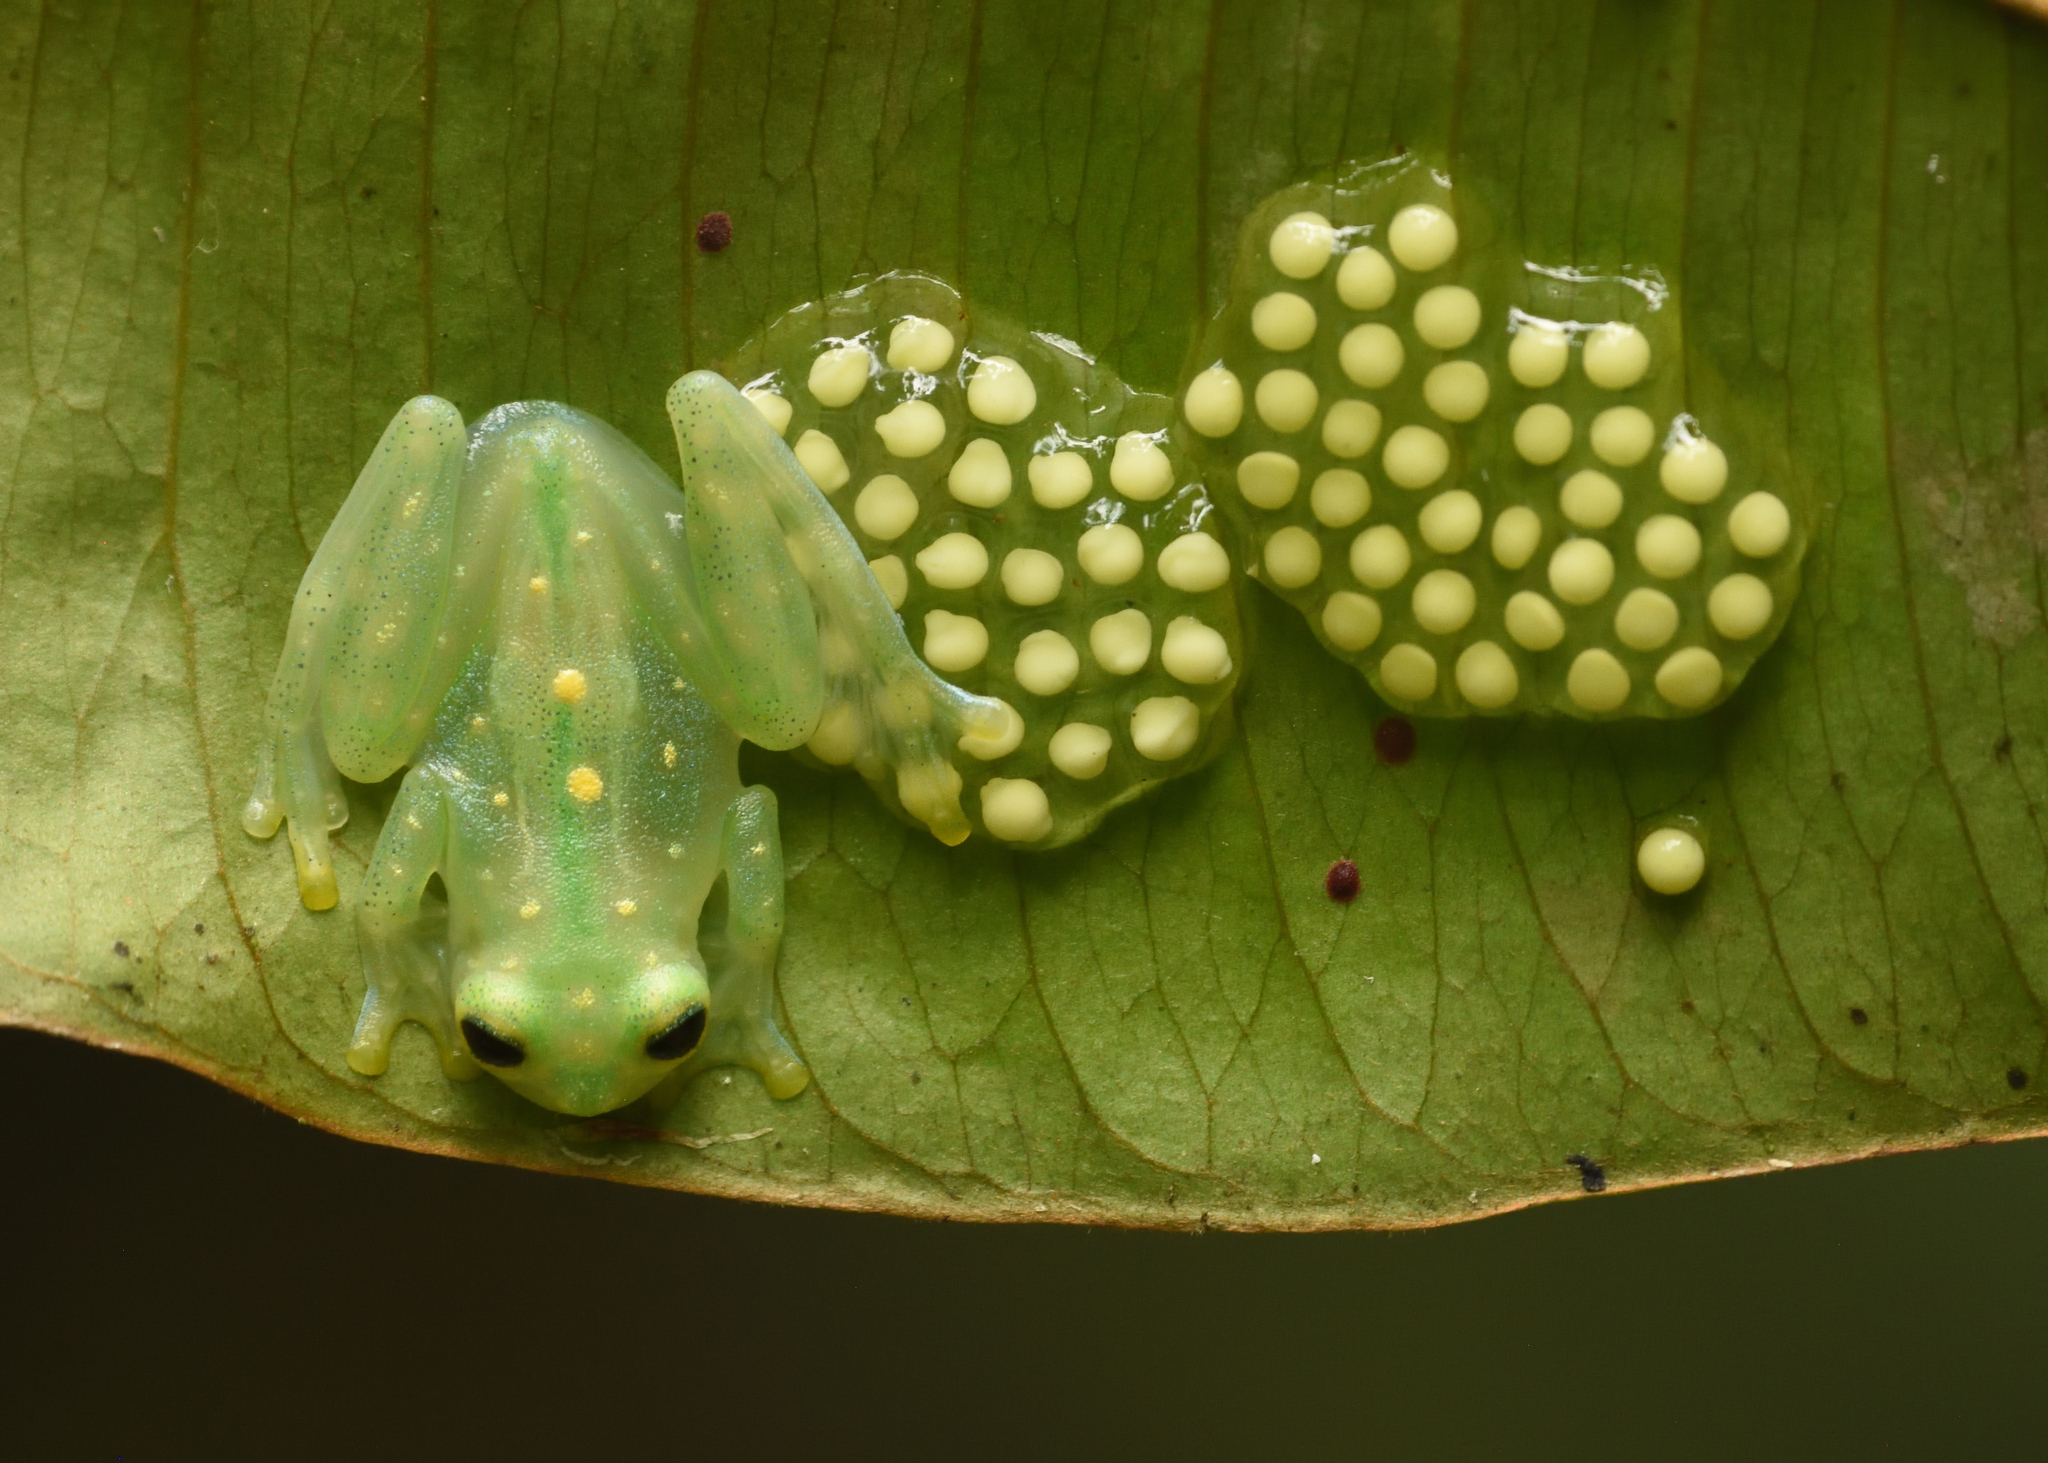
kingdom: Animalia
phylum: Chordata
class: Amphibia
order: Anura
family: Centrolenidae
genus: Hyalinobatrachium
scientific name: Hyalinobatrachium aureoguttatum
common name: Atrato glass frog
